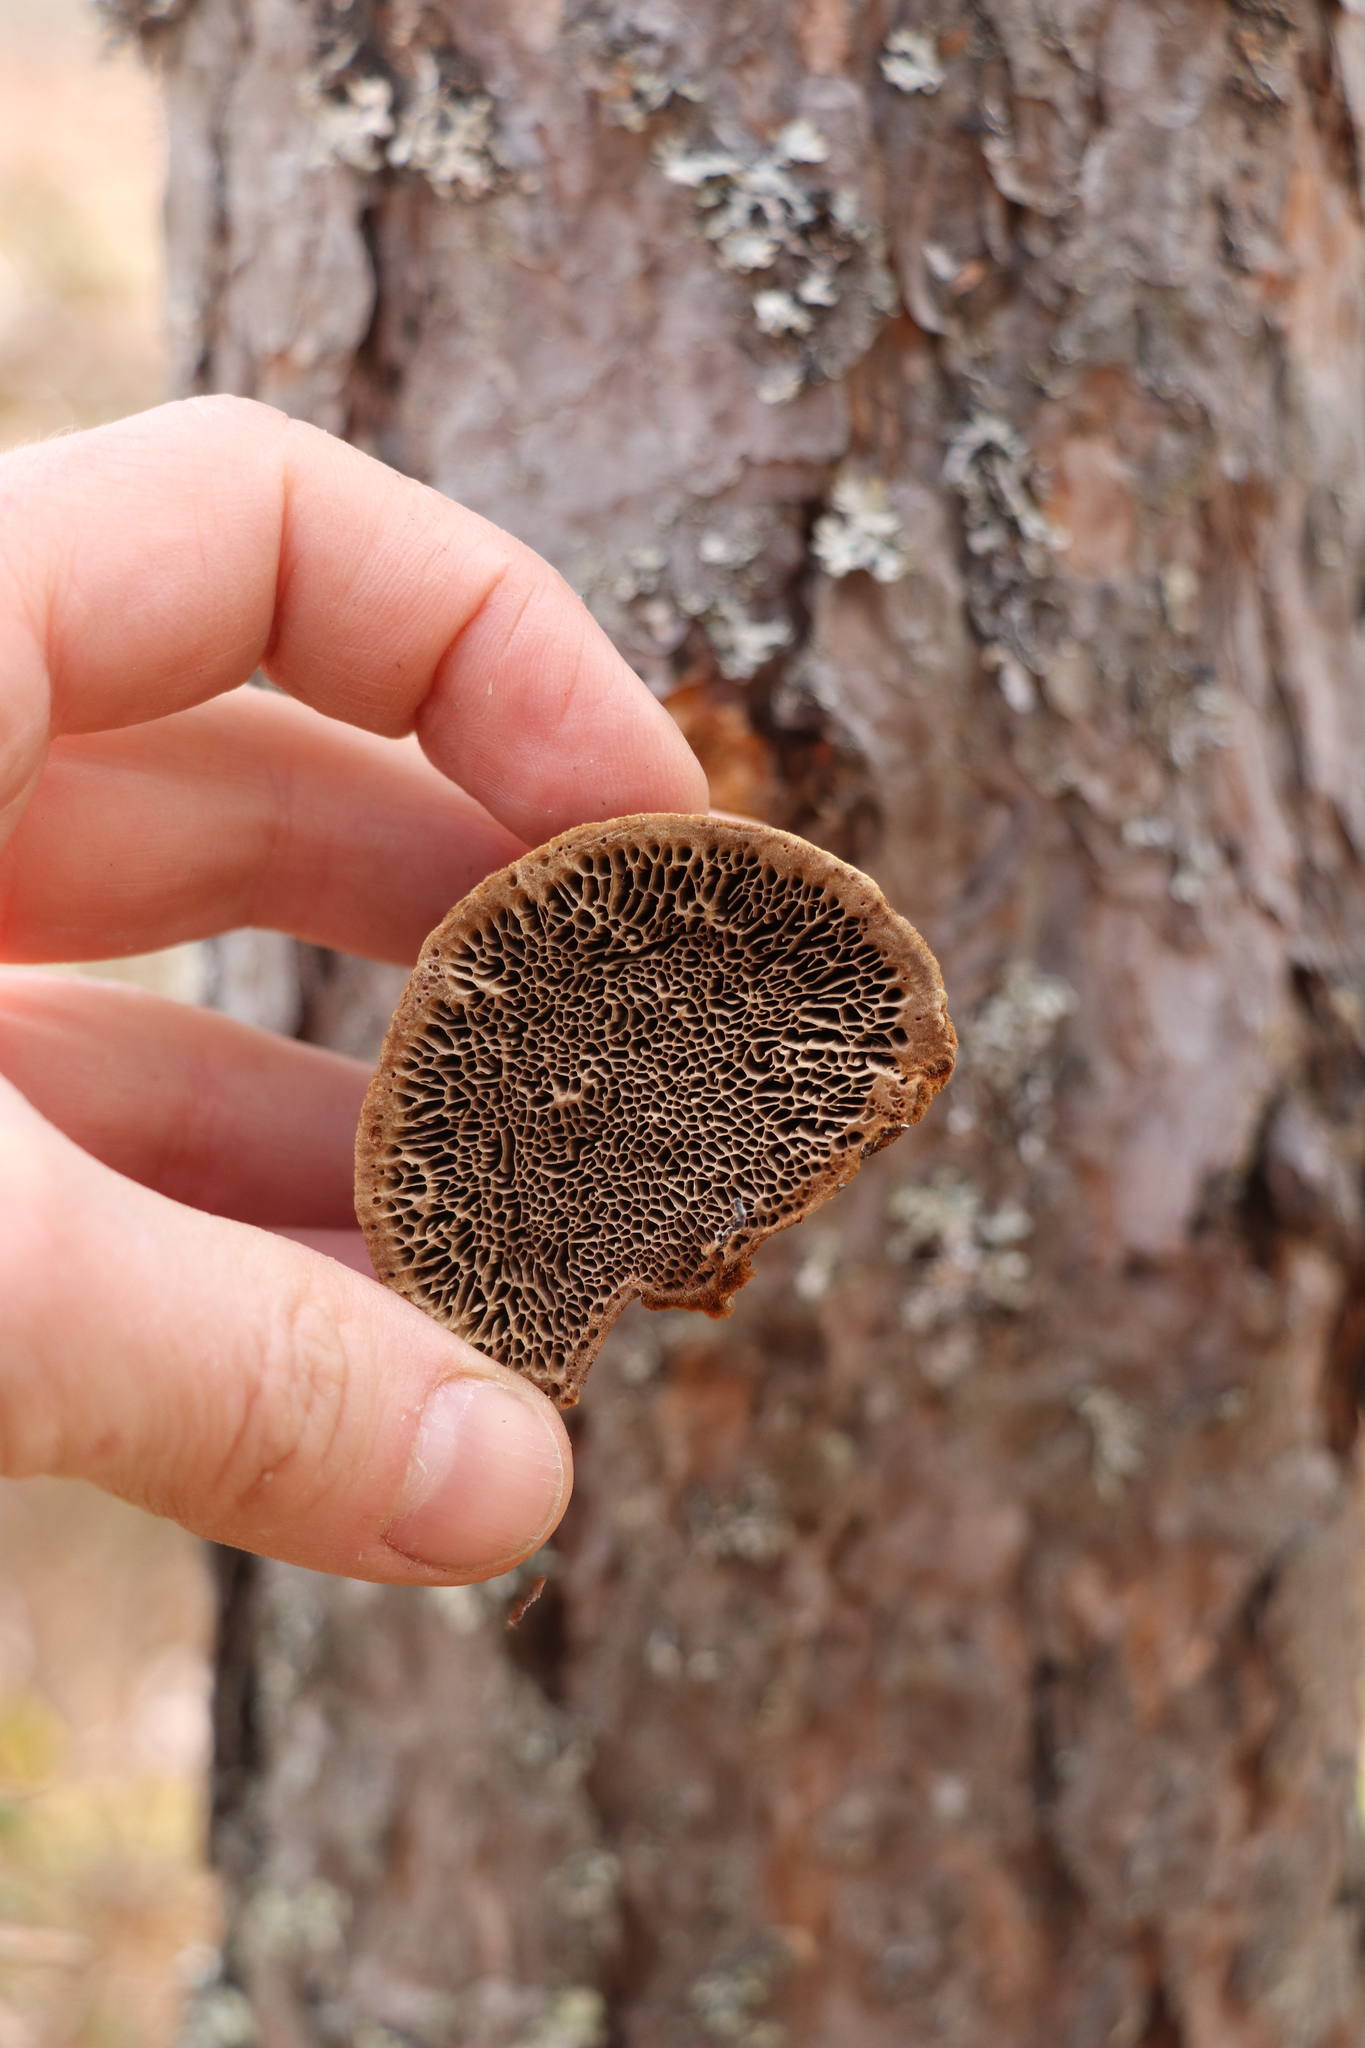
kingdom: Fungi
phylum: Basidiomycota
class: Agaricomycetes
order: Hymenochaetales
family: Hymenochaetaceae
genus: Porodaedalea
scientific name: Porodaedalea pini
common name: Pine bracket
